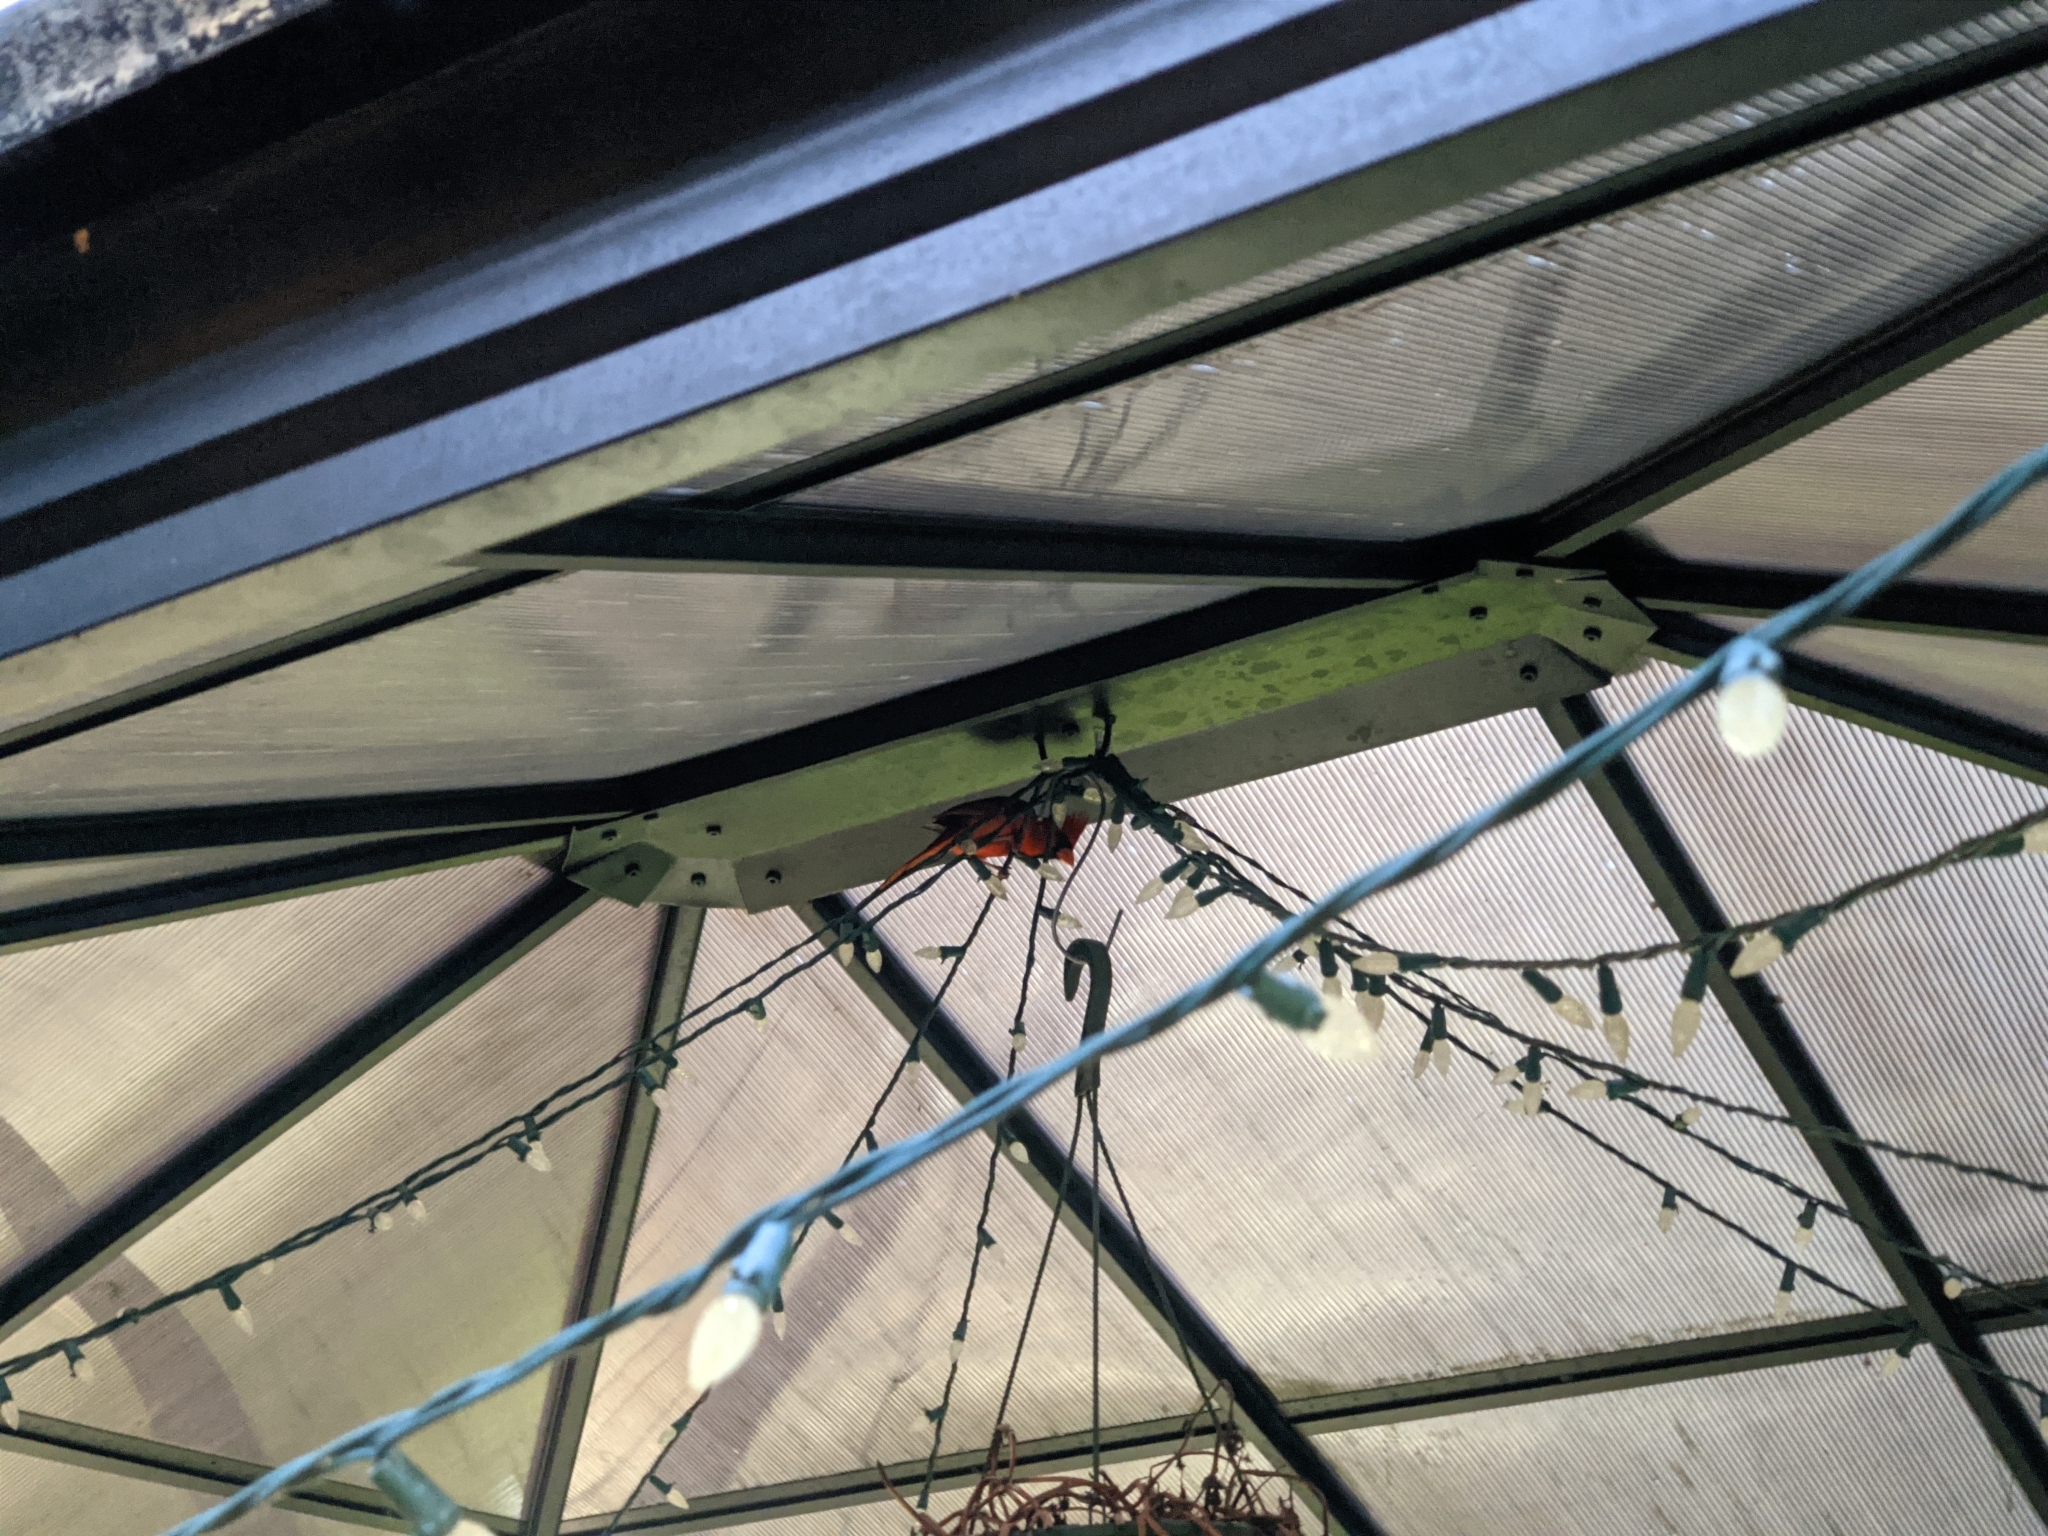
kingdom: Animalia
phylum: Chordata
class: Aves
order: Passeriformes
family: Cardinalidae
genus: Cardinalis
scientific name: Cardinalis cardinalis
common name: Northern cardinal
